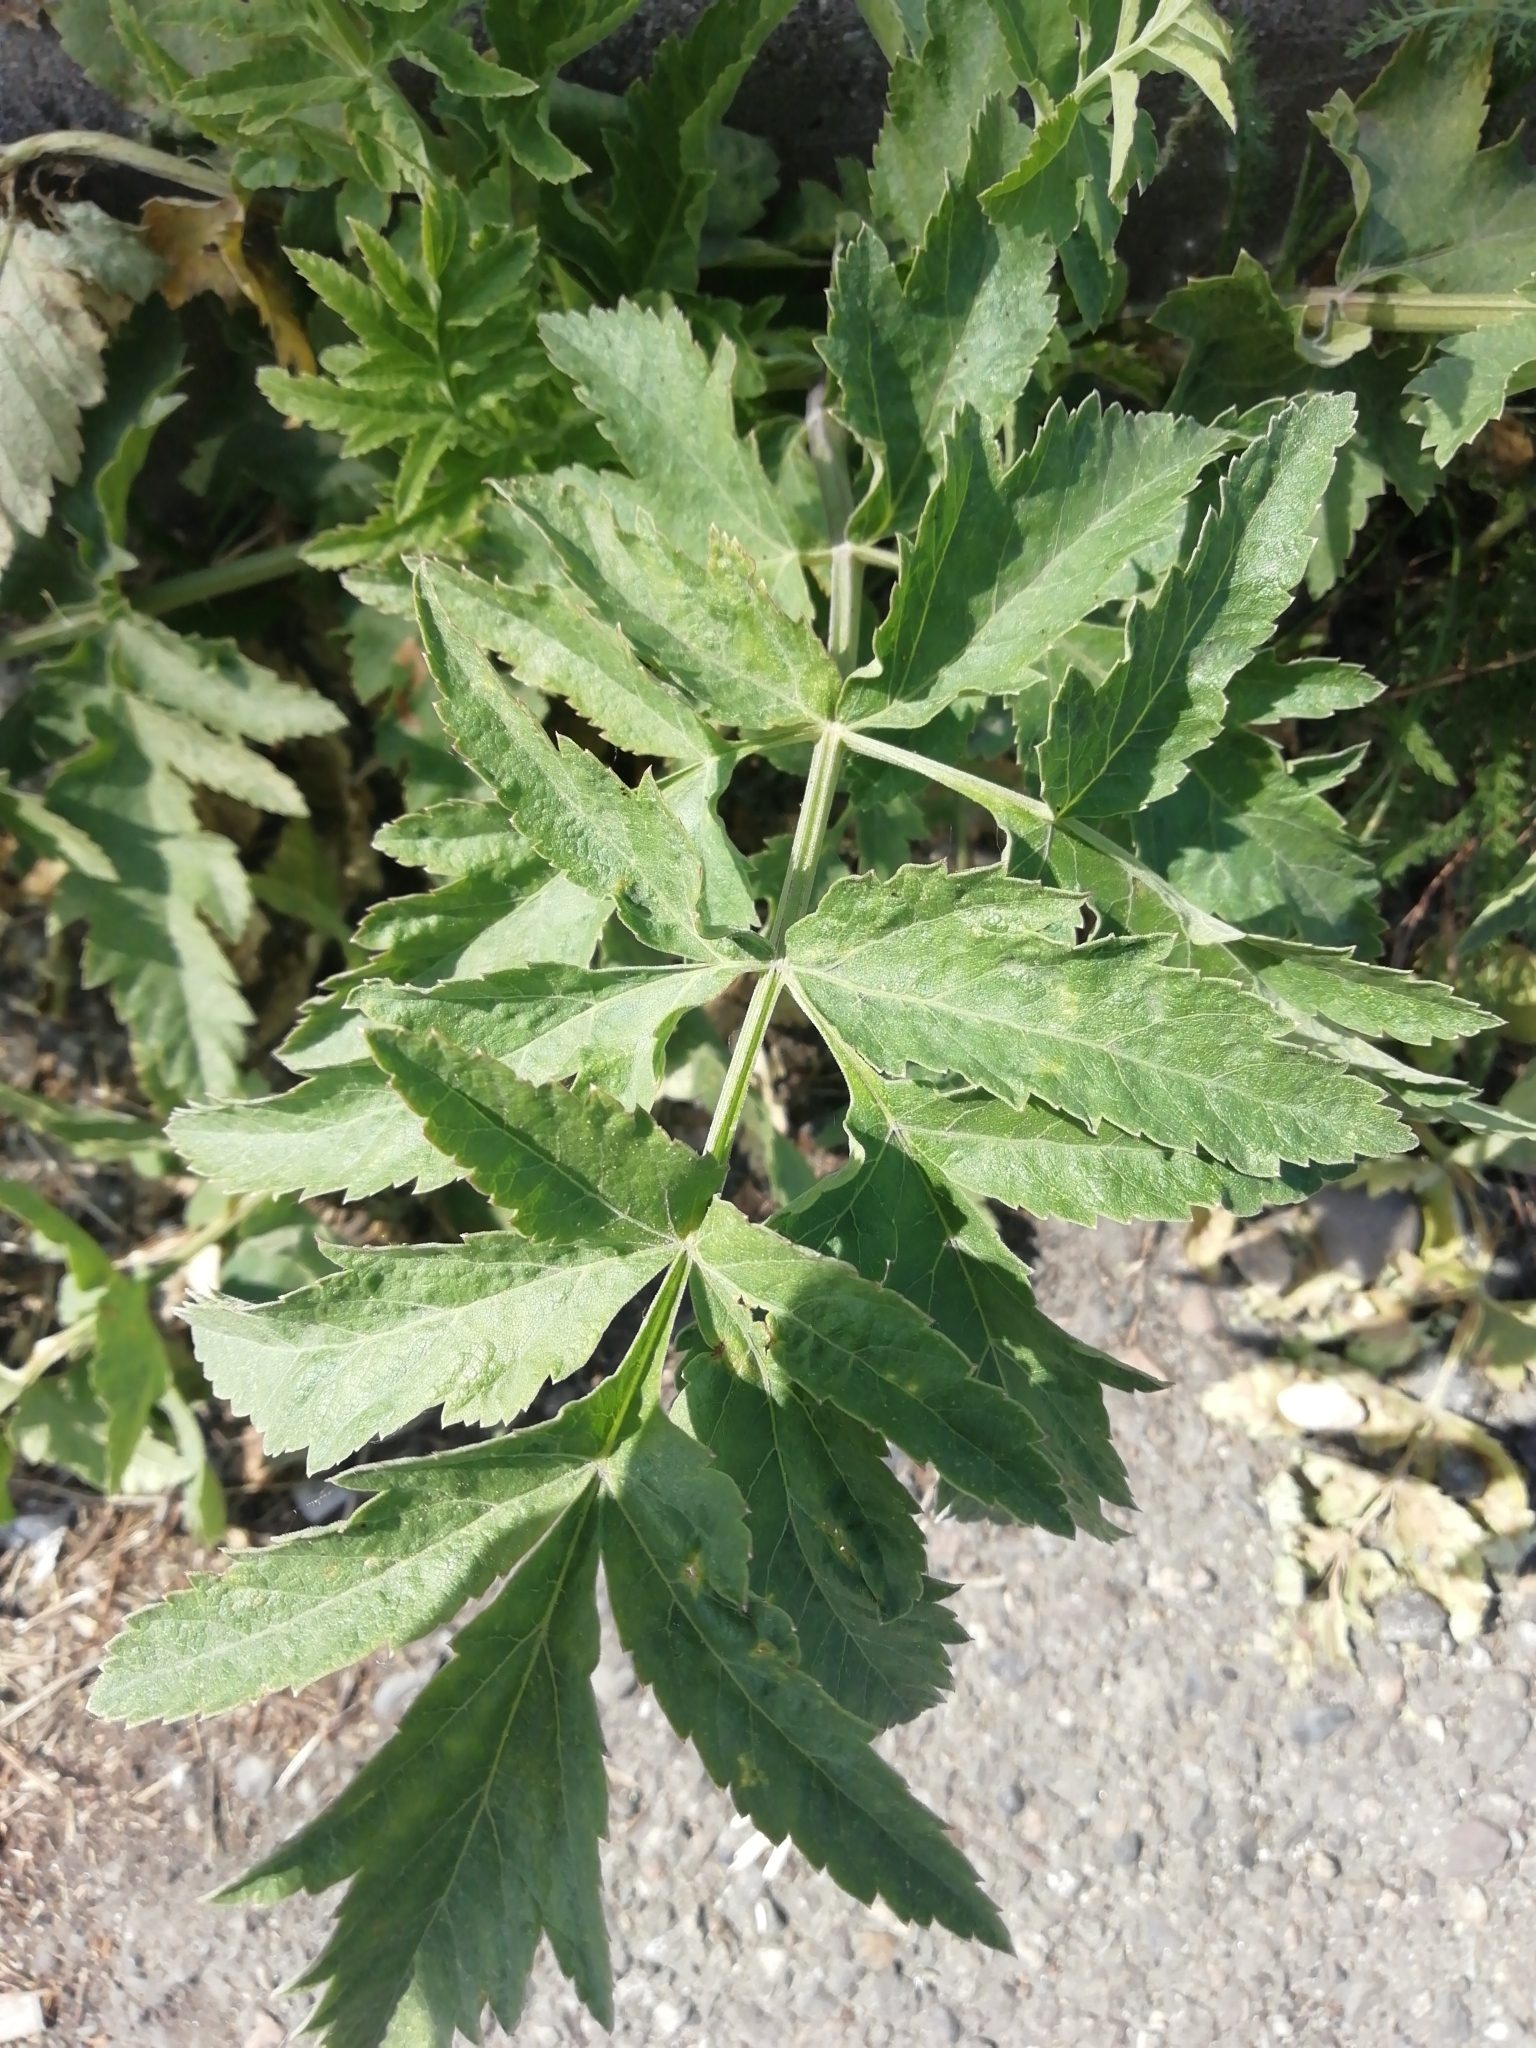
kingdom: Plantae
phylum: Tracheophyta
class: Magnoliopsida
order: Apiales
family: Apiaceae
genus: Pastinaca
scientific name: Pastinaca sativa
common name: Wild parsnip
